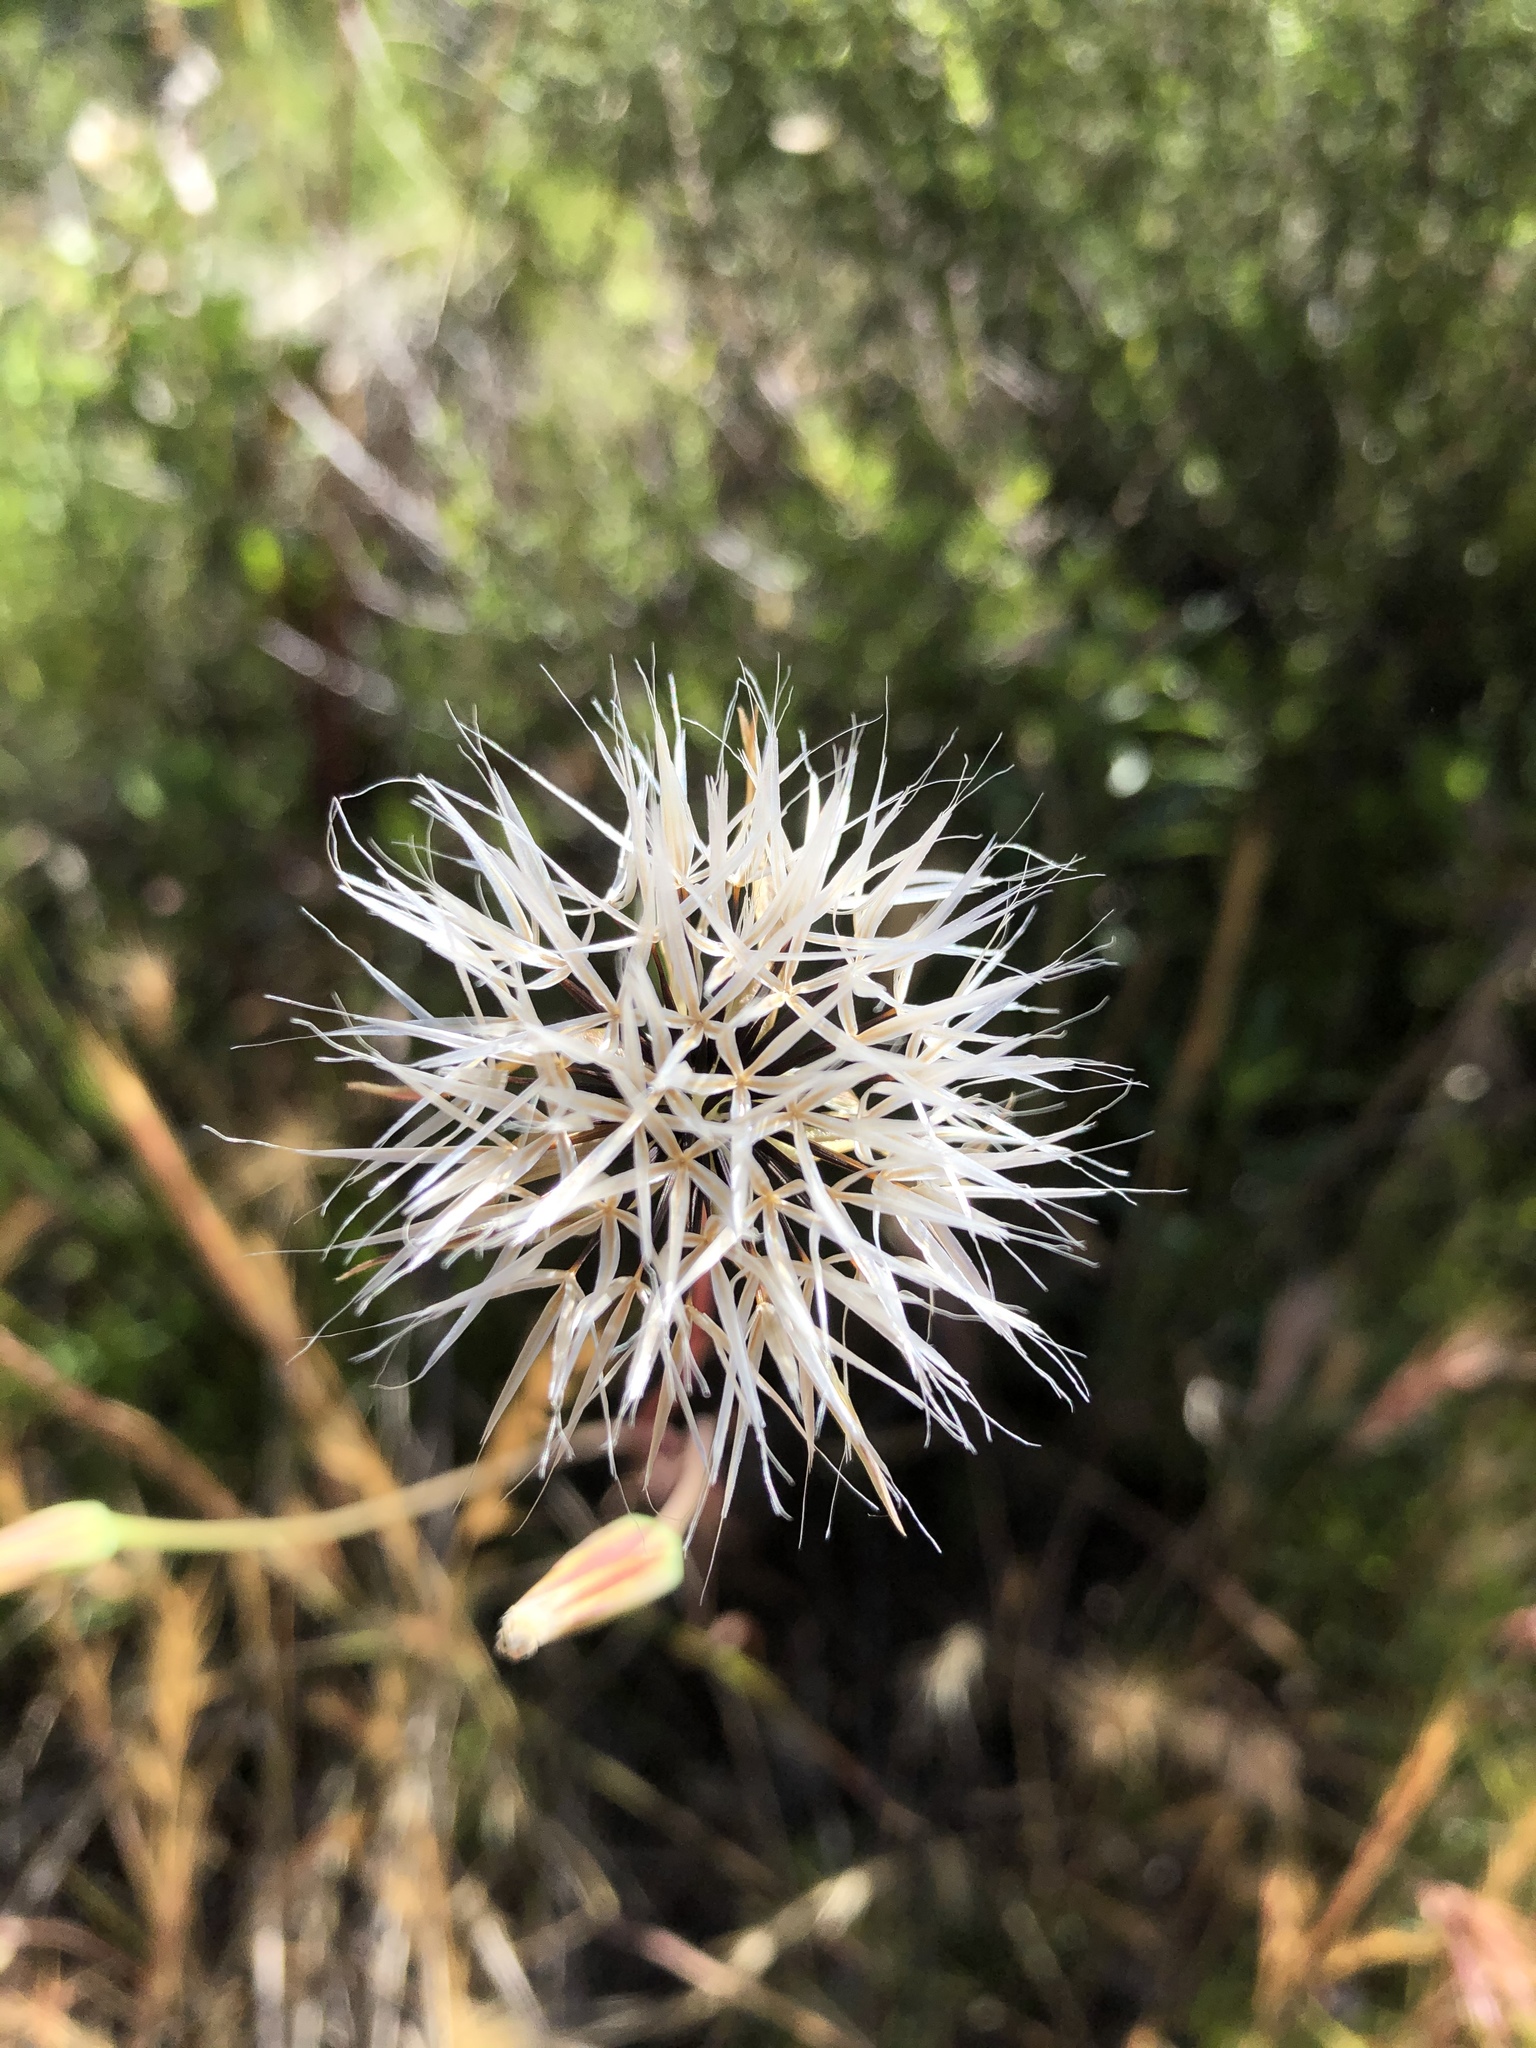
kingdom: Plantae
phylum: Tracheophyta
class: Magnoliopsida
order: Asterales
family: Asteraceae
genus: Microseris
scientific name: Microseris lindleyi
